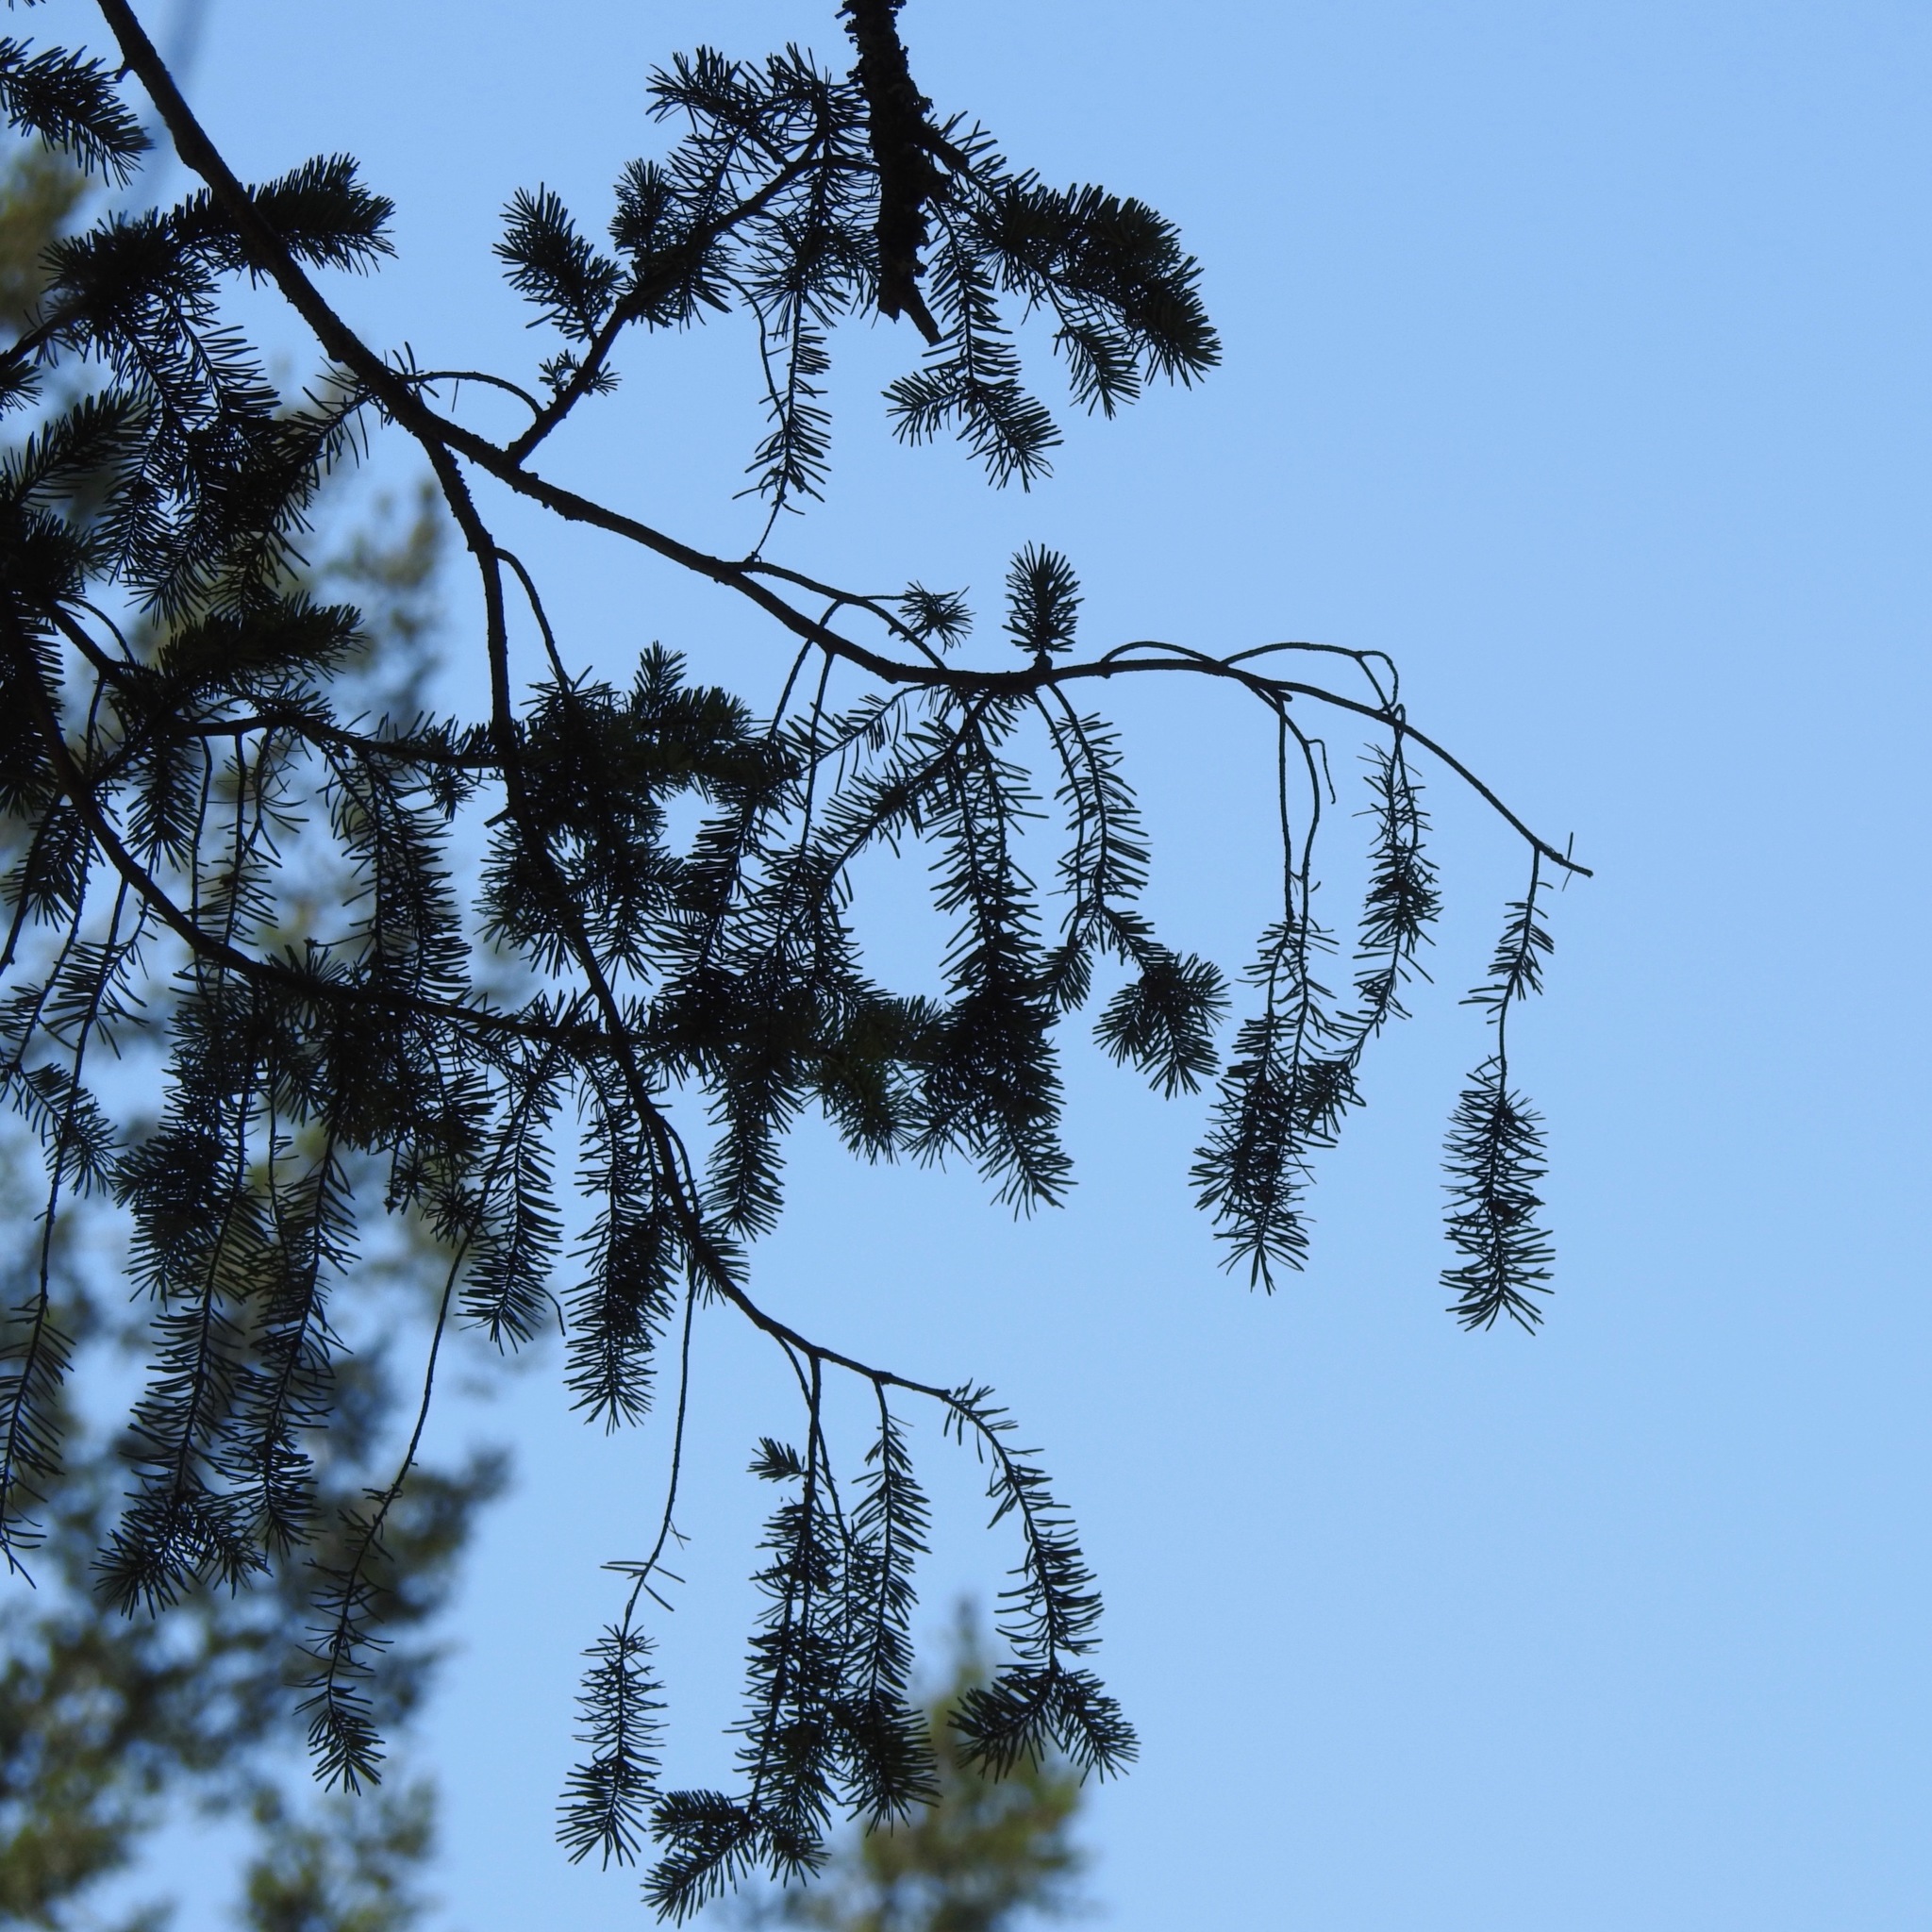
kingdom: Plantae
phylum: Tracheophyta
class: Pinopsida
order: Pinales
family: Pinaceae
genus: Pseudotsuga
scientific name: Pseudotsuga menziesii
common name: Douglas fir
